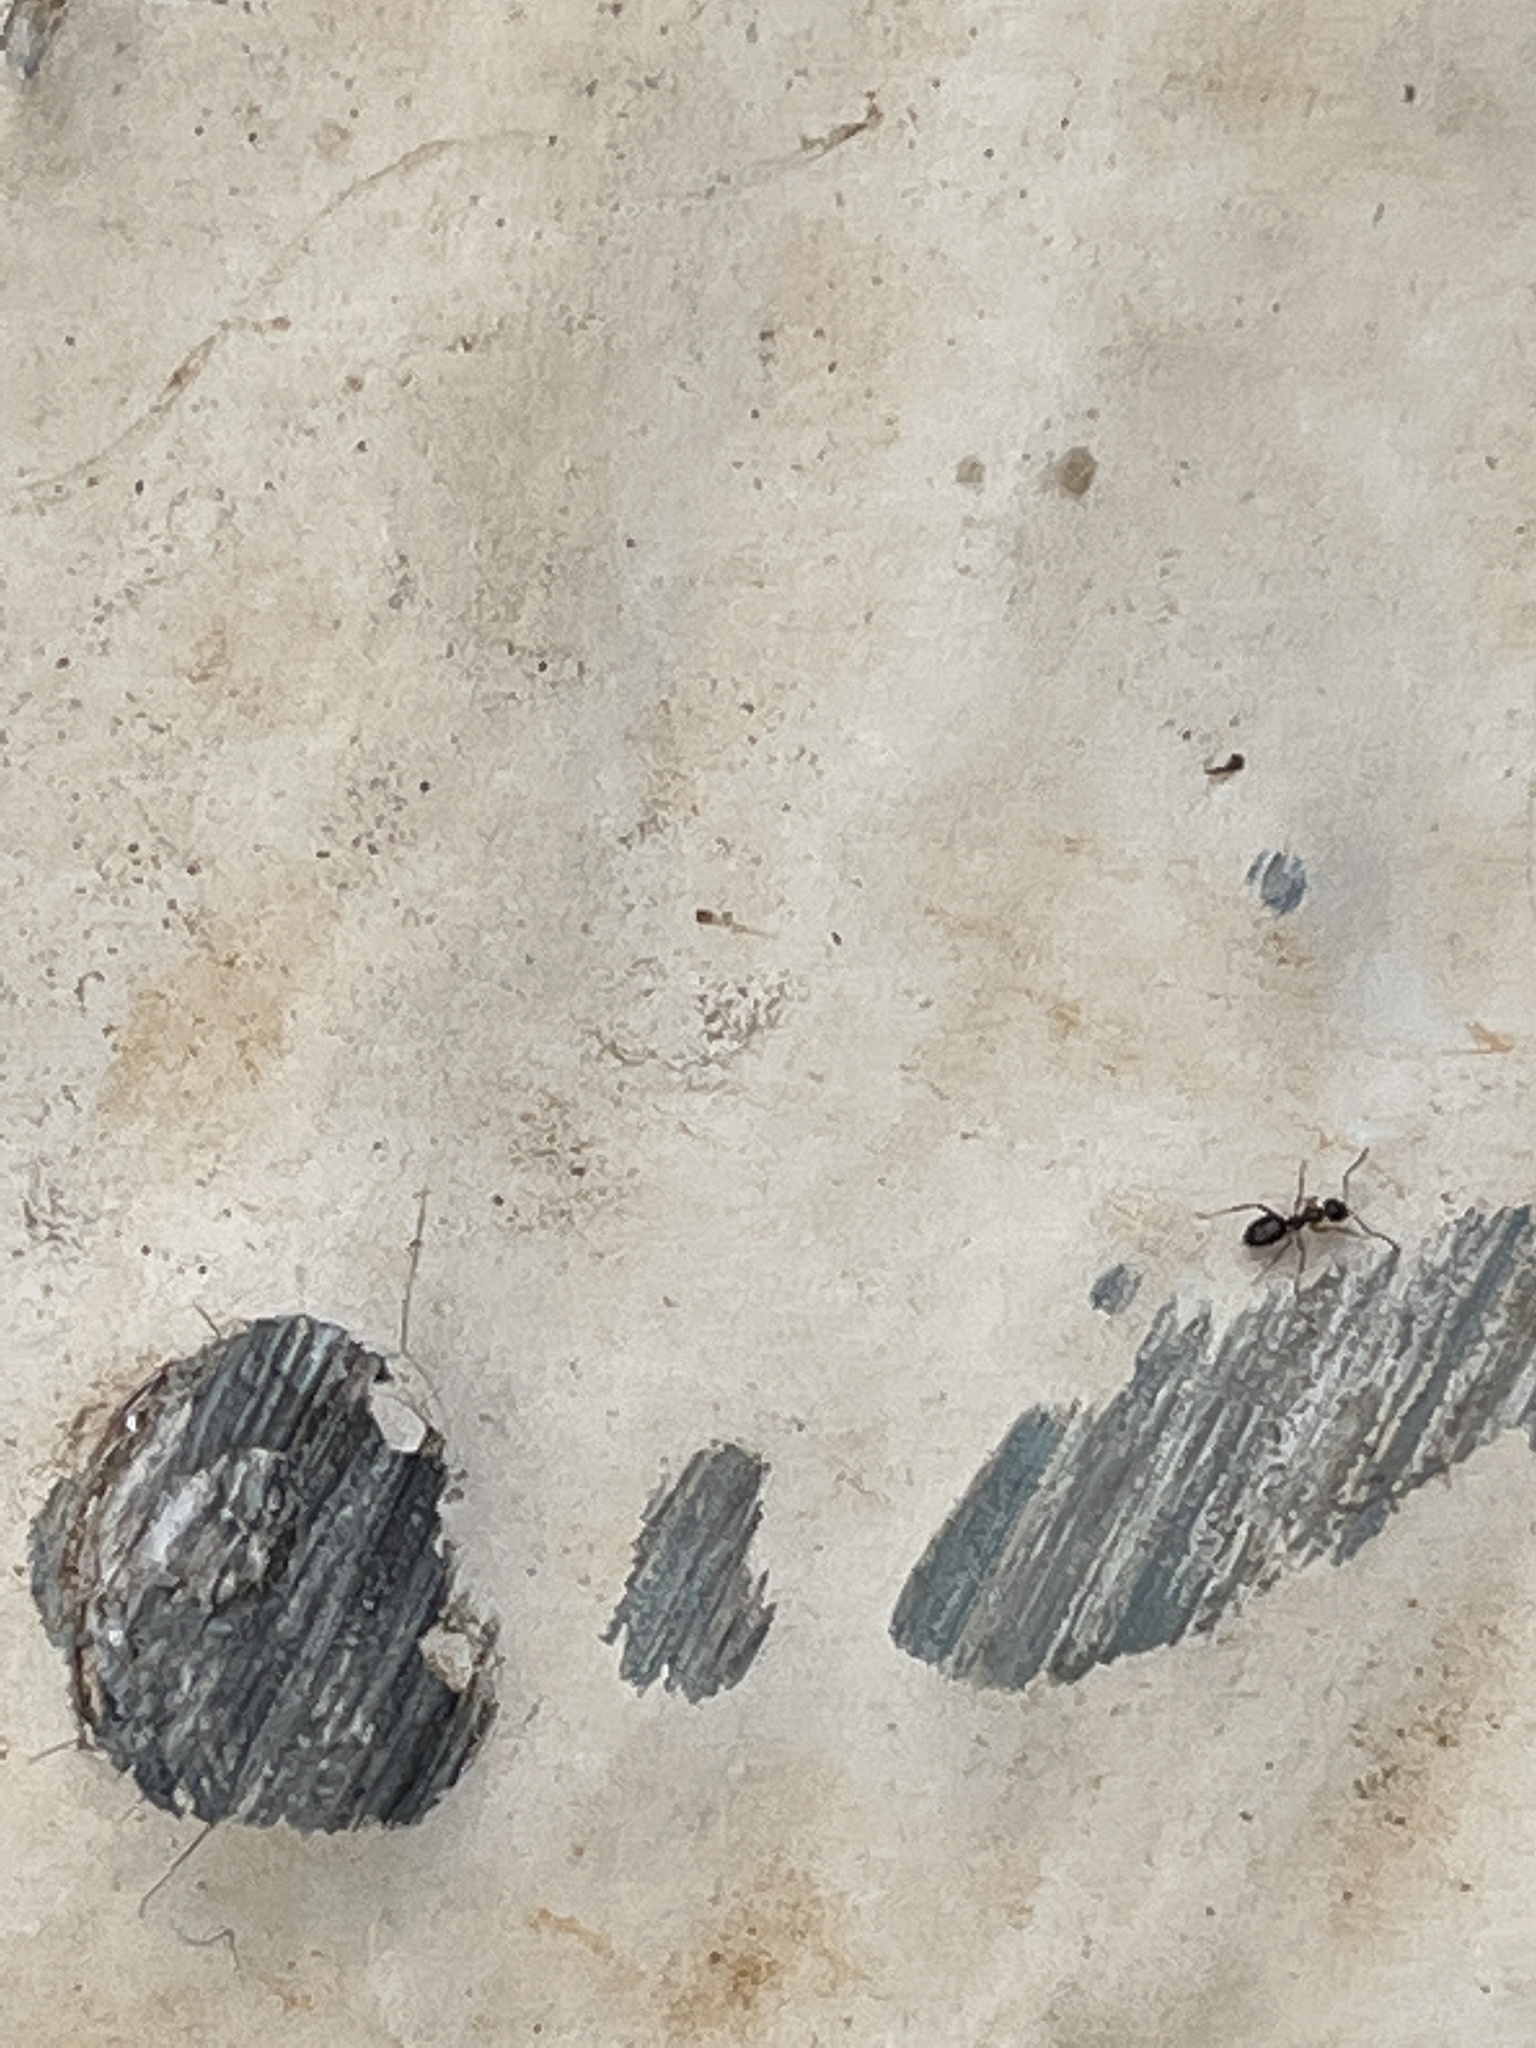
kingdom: Animalia
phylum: Arthropoda
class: Insecta
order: Hymenoptera
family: Formicidae
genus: Lepisiota
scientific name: Lepisiota capensis
